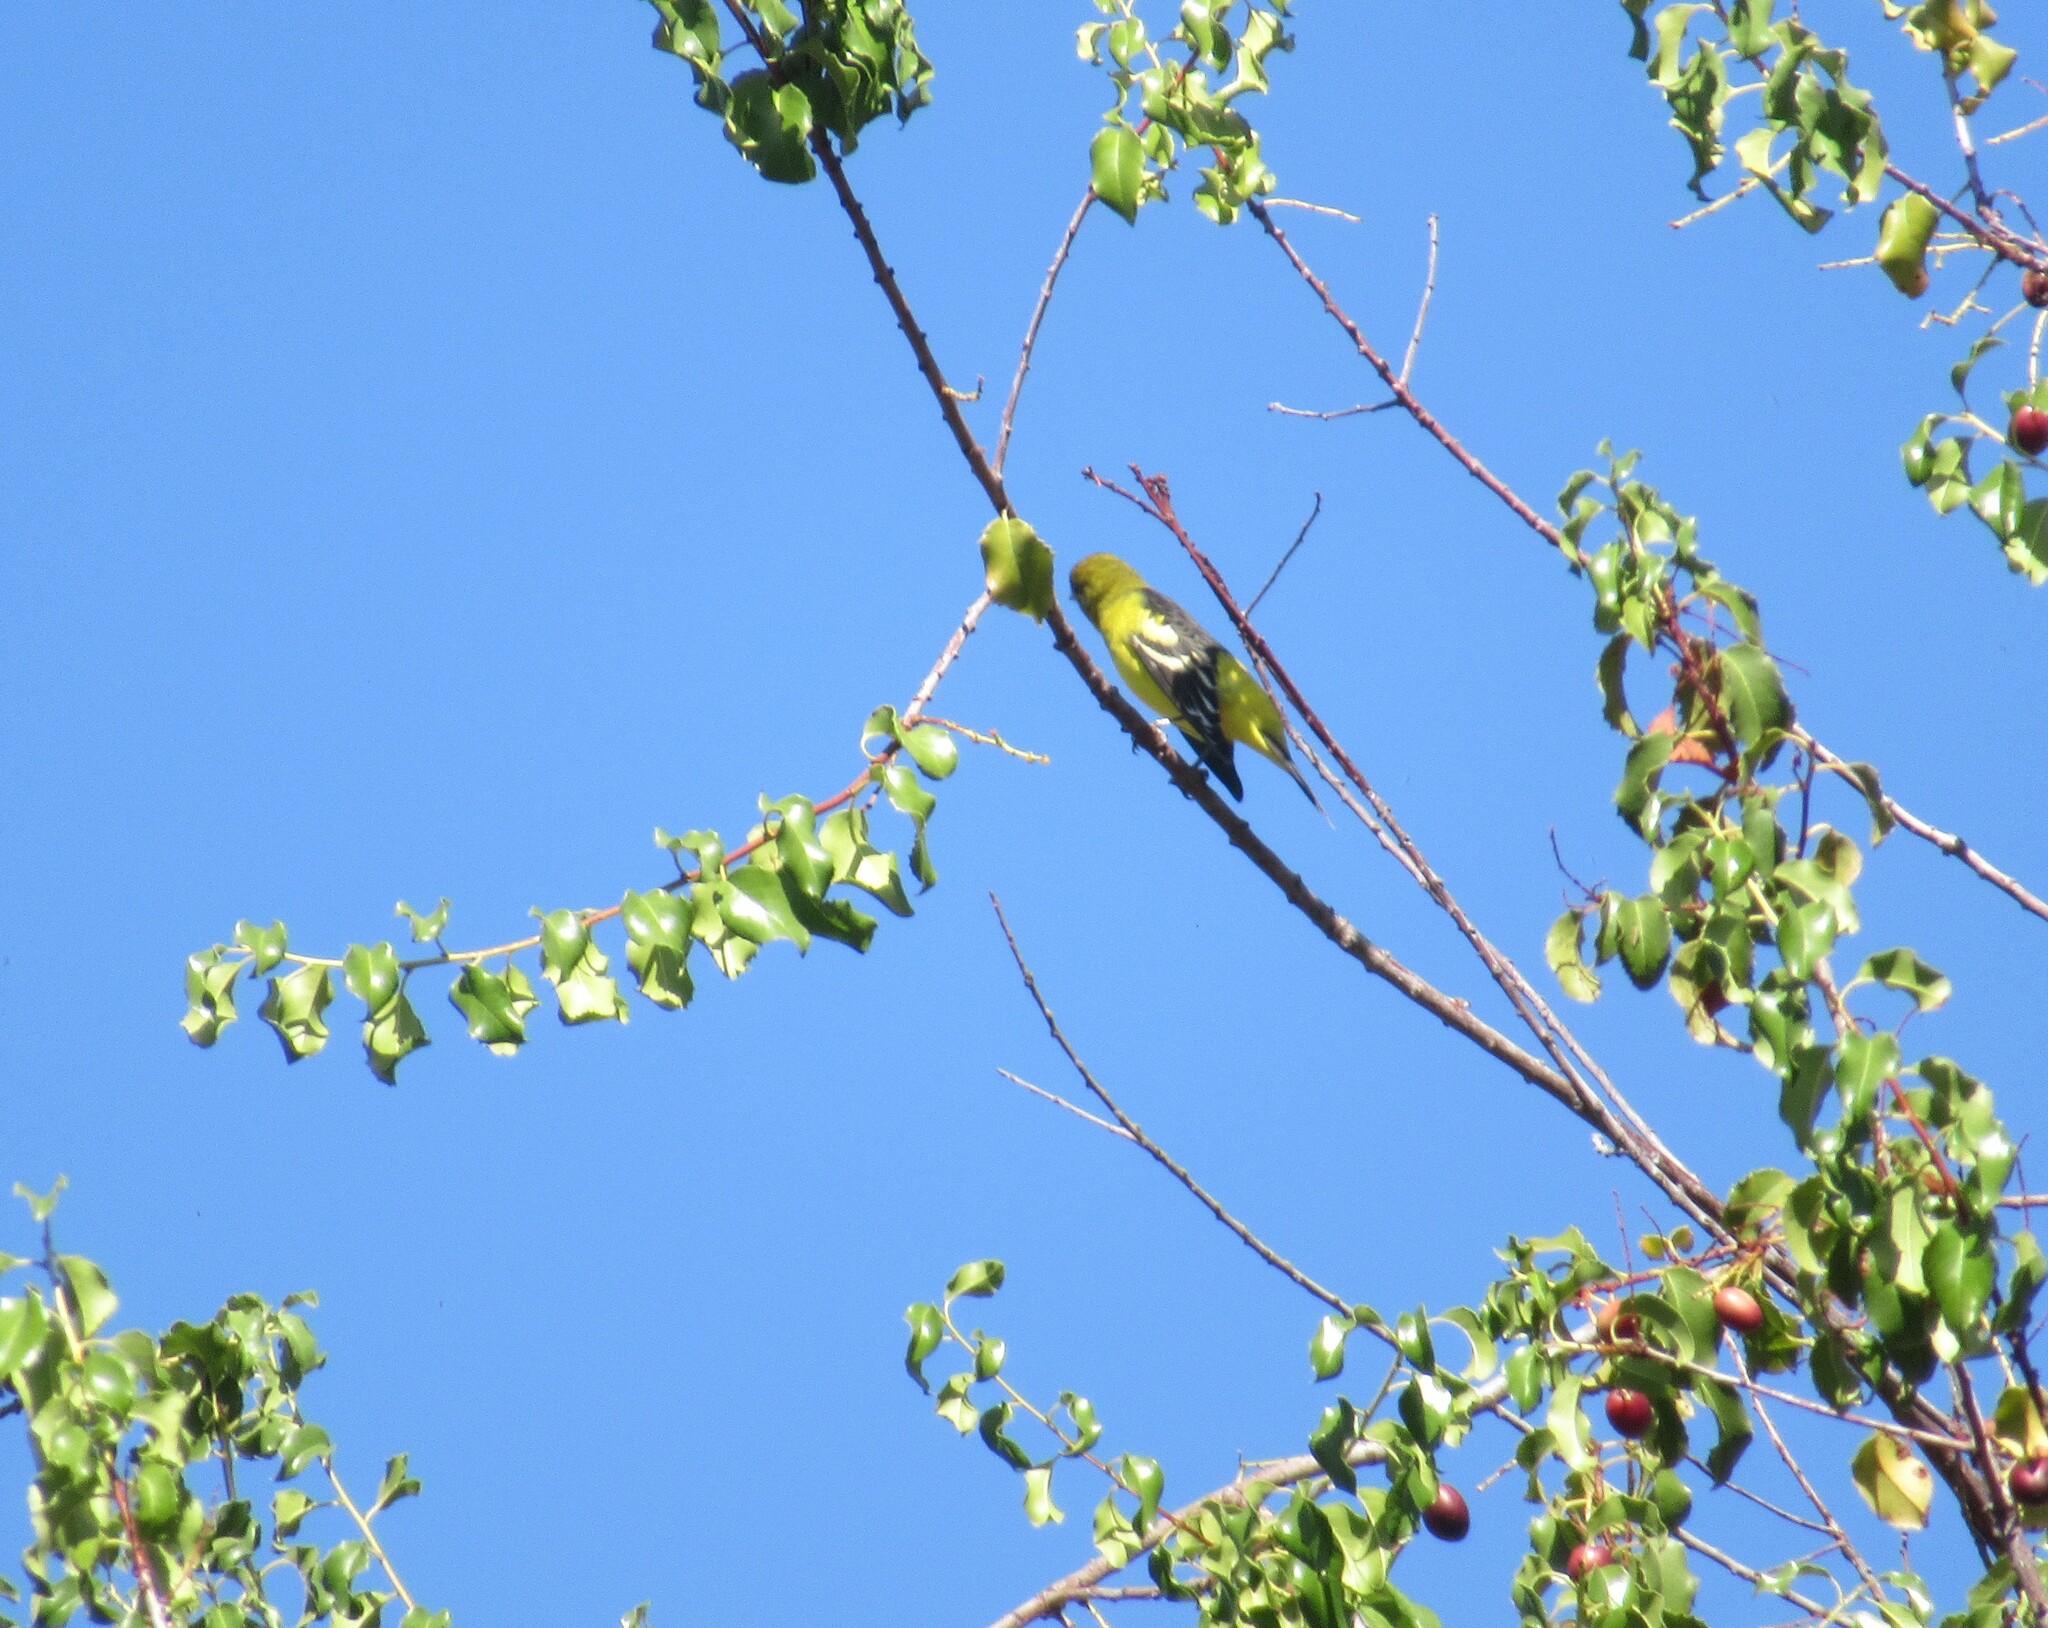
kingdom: Animalia
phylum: Chordata
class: Aves
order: Passeriformes
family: Cardinalidae
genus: Piranga
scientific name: Piranga ludoviciana
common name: Western tanager
